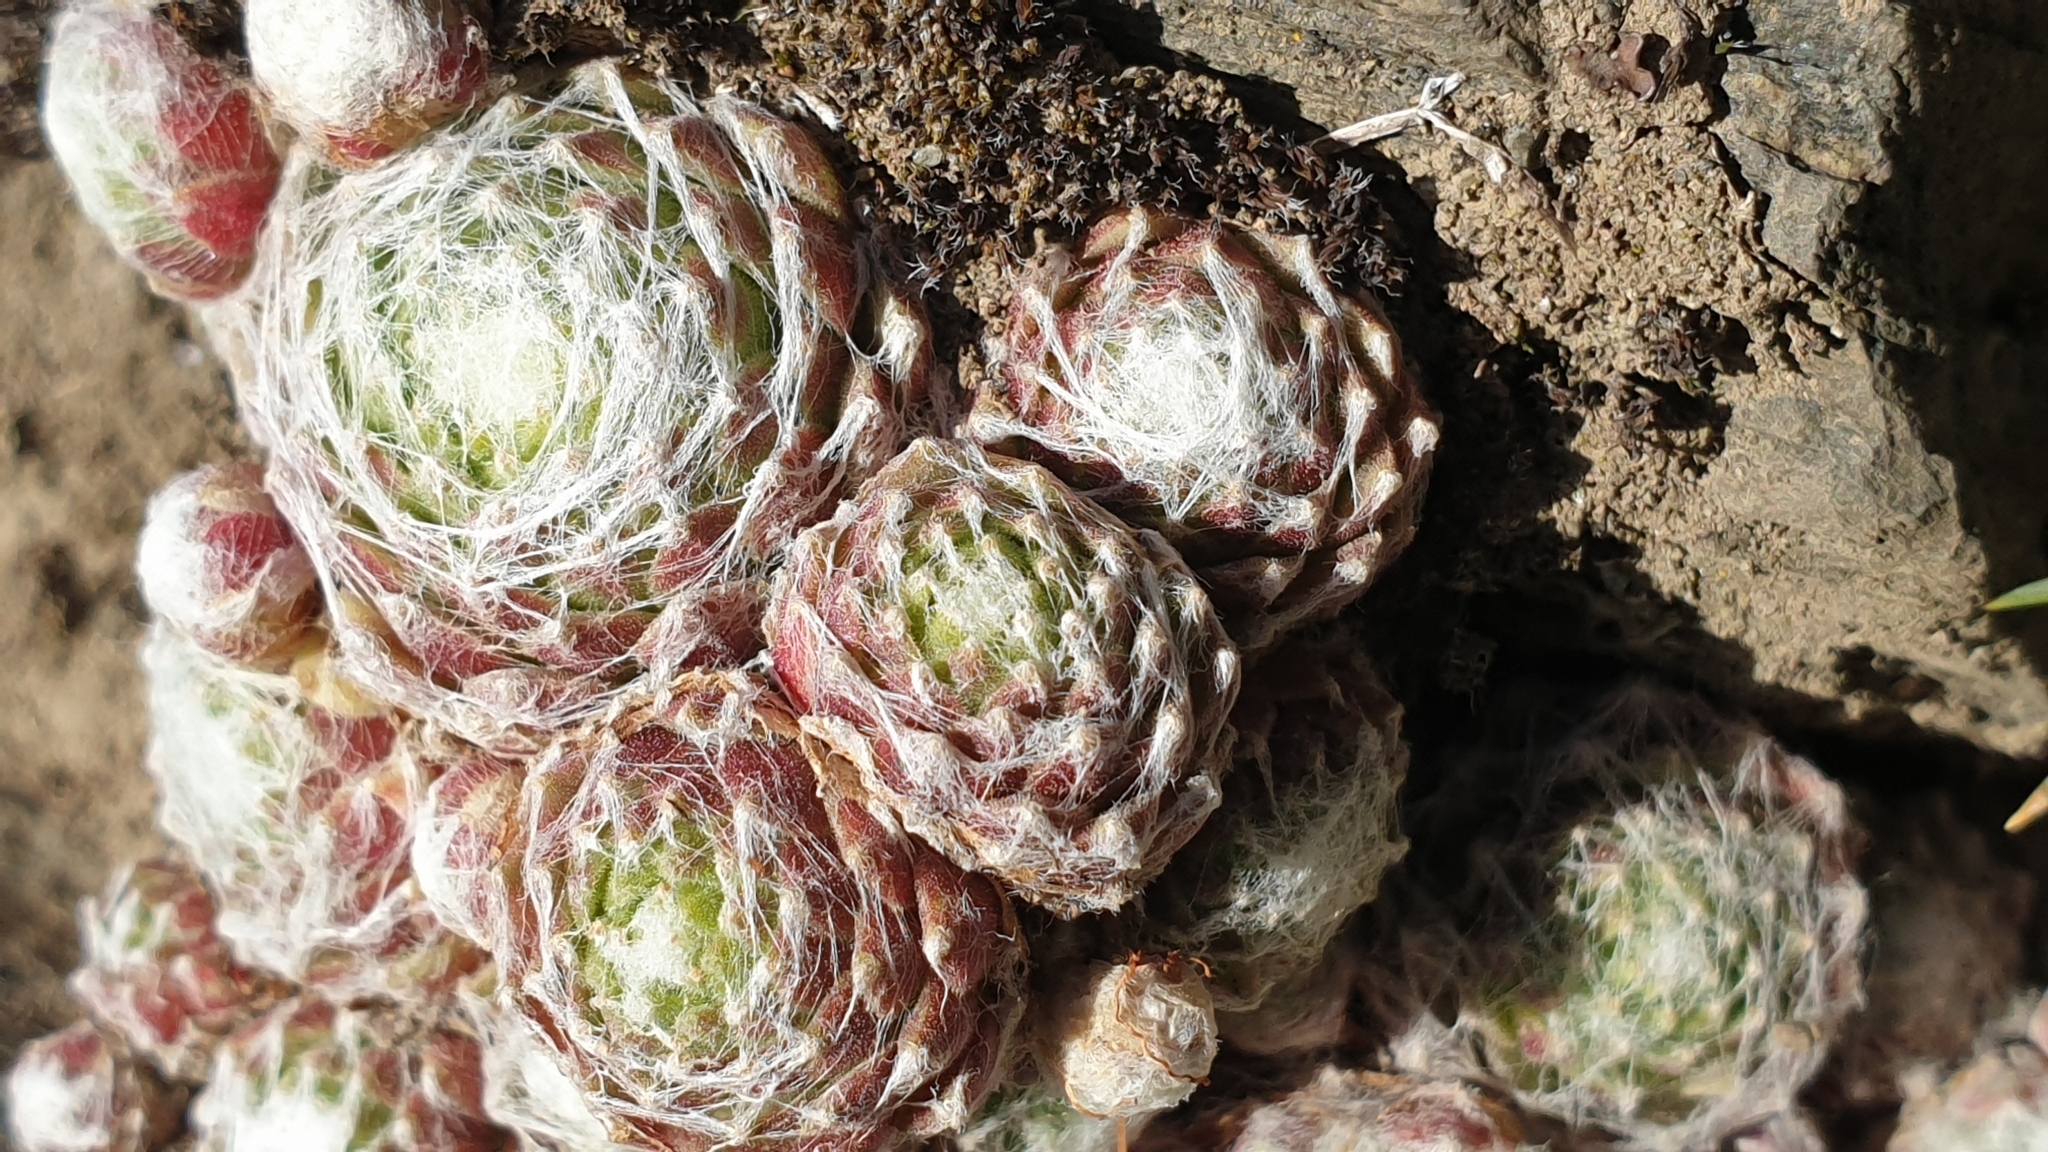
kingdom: Plantae
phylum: Tracheophyta
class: Magnoliopsida
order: Saxifragales
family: Crassulaceae
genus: Sempervivum
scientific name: Sempervivum arachnoideum
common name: Cobweb house-leek
